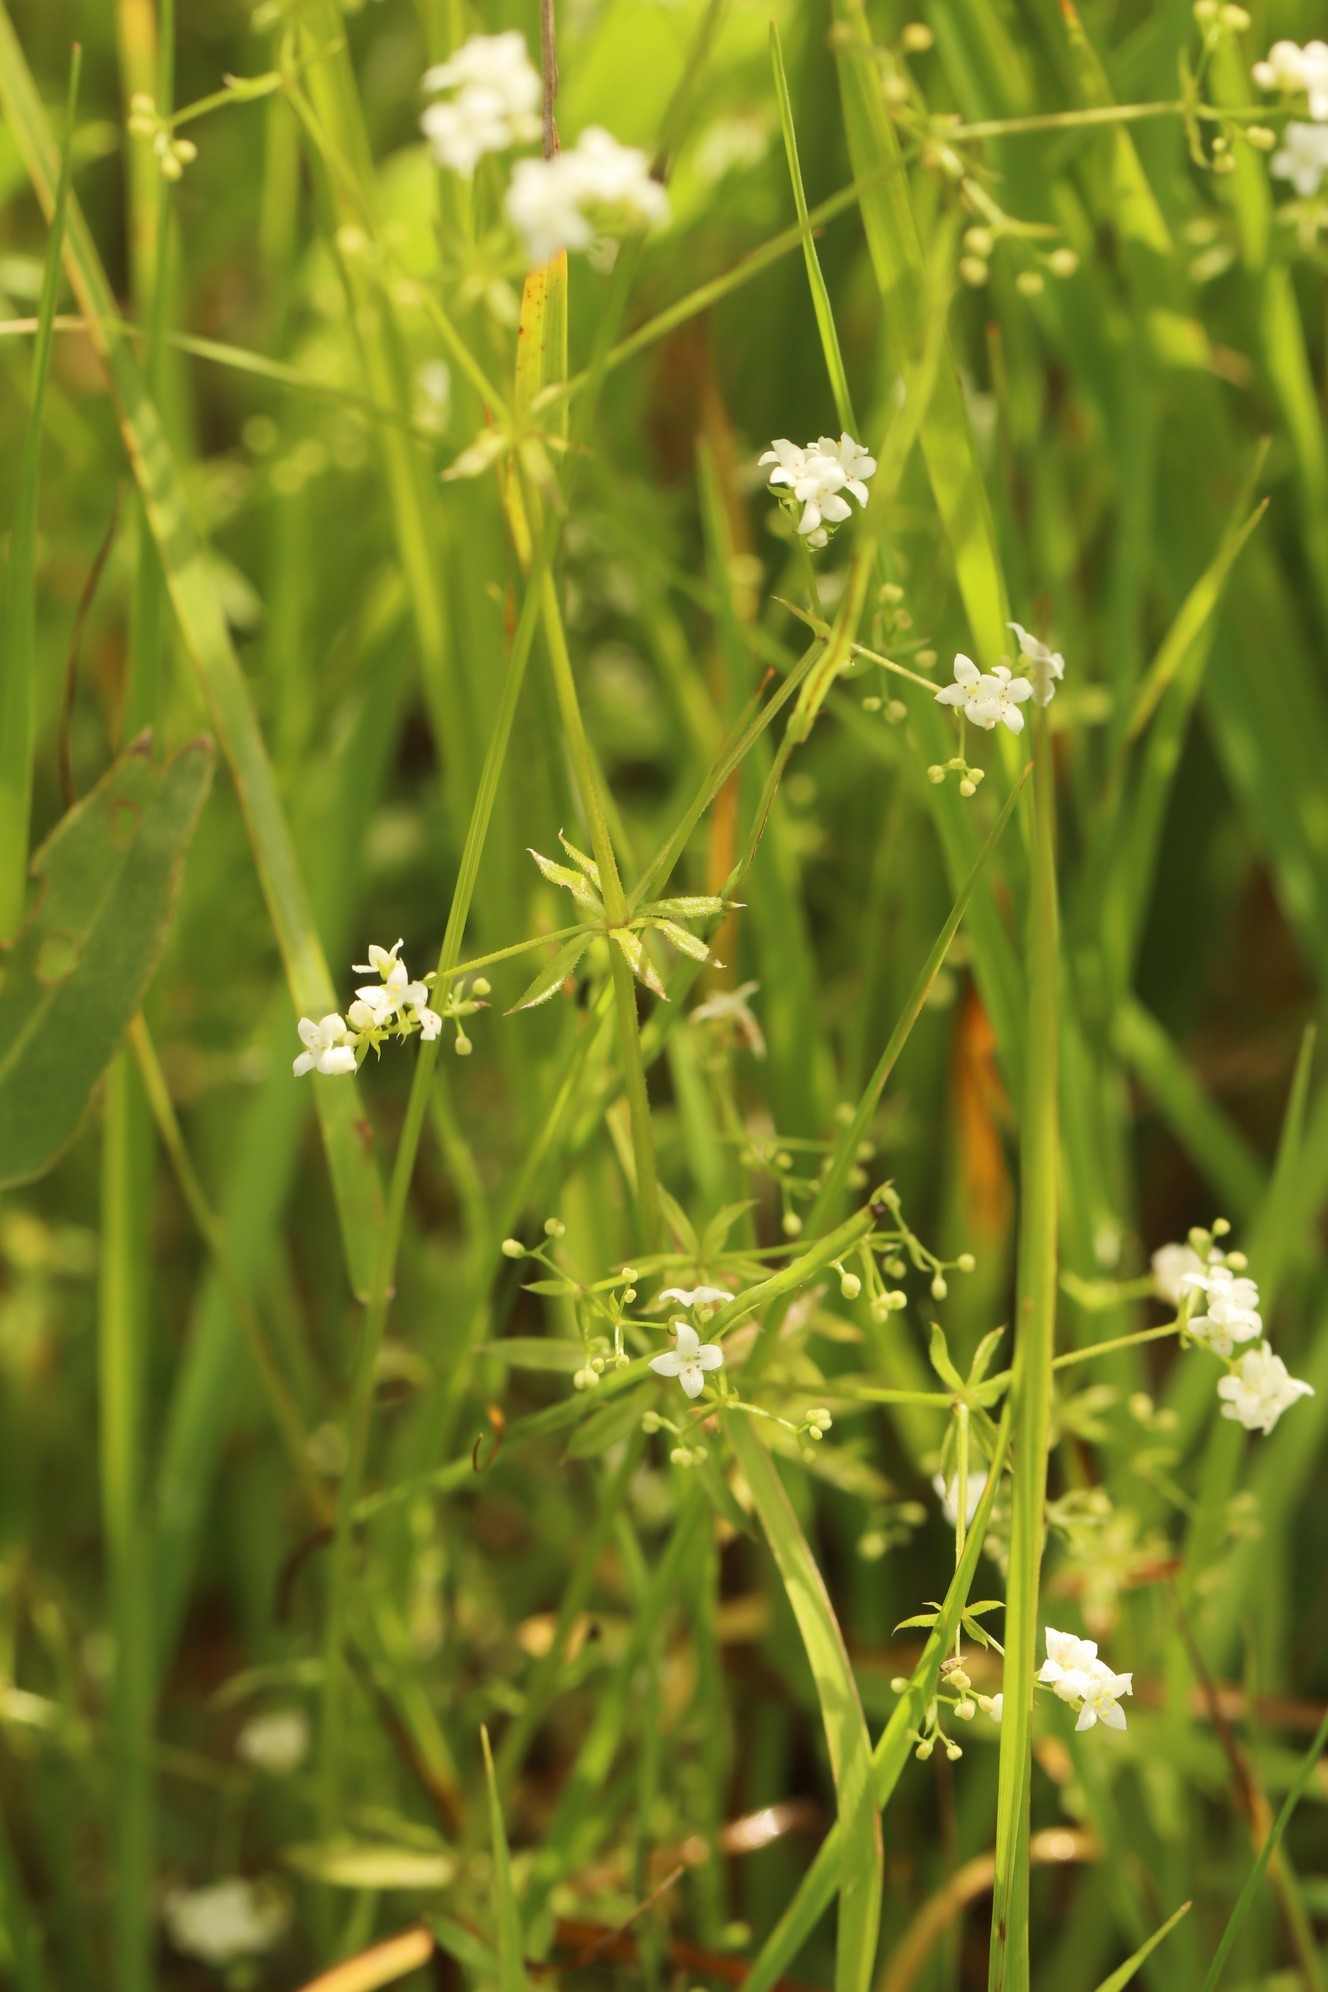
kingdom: Plantae
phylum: Tracheophyta
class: Magnoliopsida
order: Gentianales
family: Rubiaceae
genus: Galium
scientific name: Galium uliginosum
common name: Fen bedstraw
